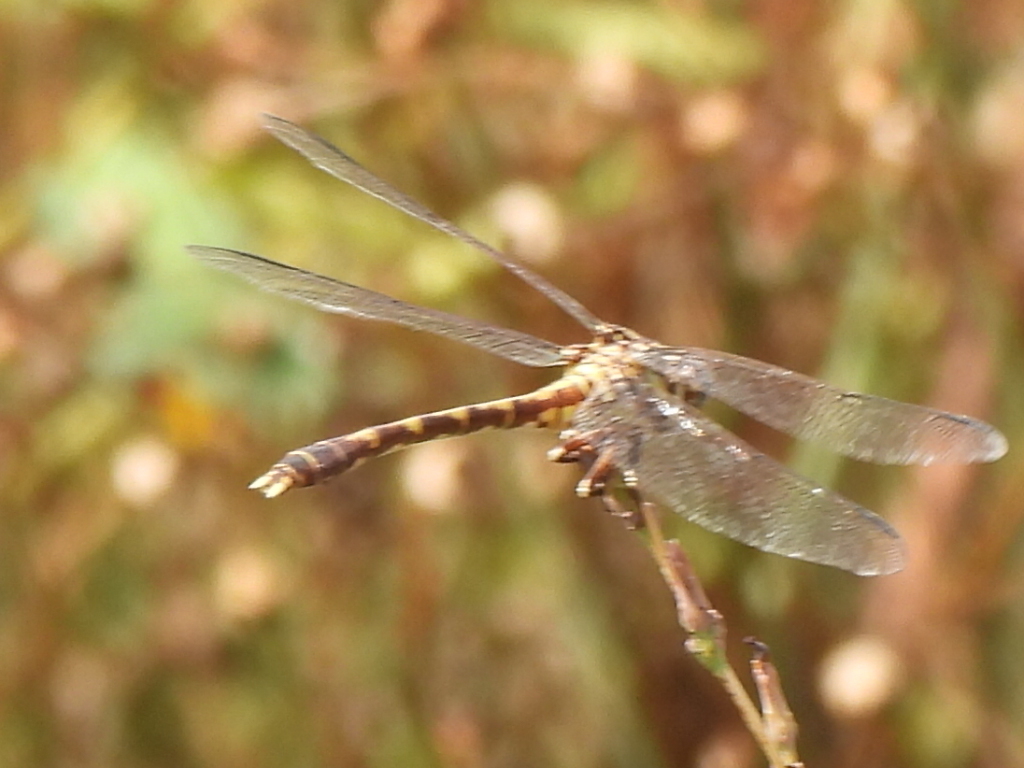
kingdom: Animalia
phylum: Arthropoda
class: Insecta
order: Odonata
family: Gomphidae
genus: Progomphus
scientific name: Progomphus obscurus
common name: Common sanddragon
